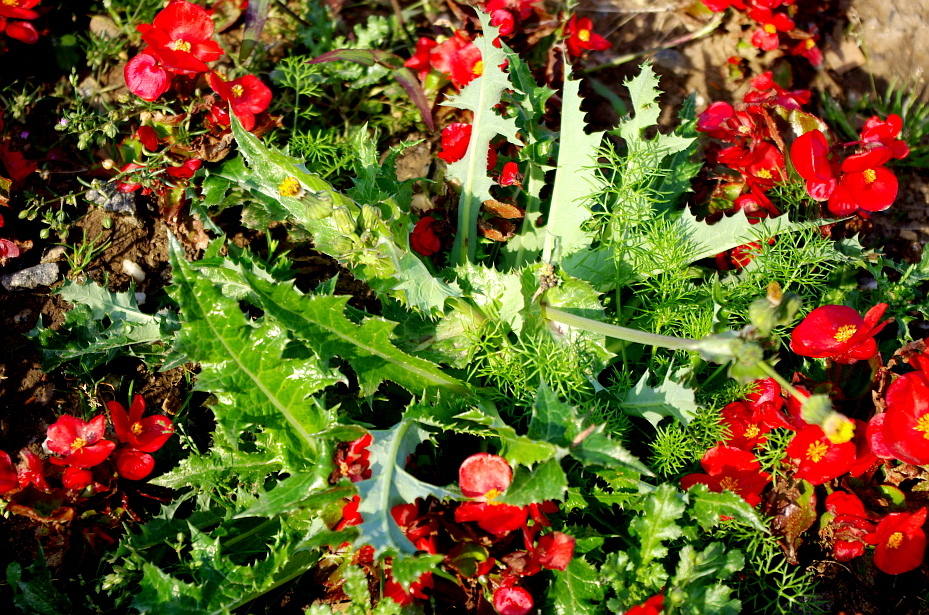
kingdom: Plantae
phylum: Tracheophyta
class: Magnoliopsida
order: Asterales
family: Asteraceae
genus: Sonchus
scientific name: Sonchus asper
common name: Prickly sow-thistle
